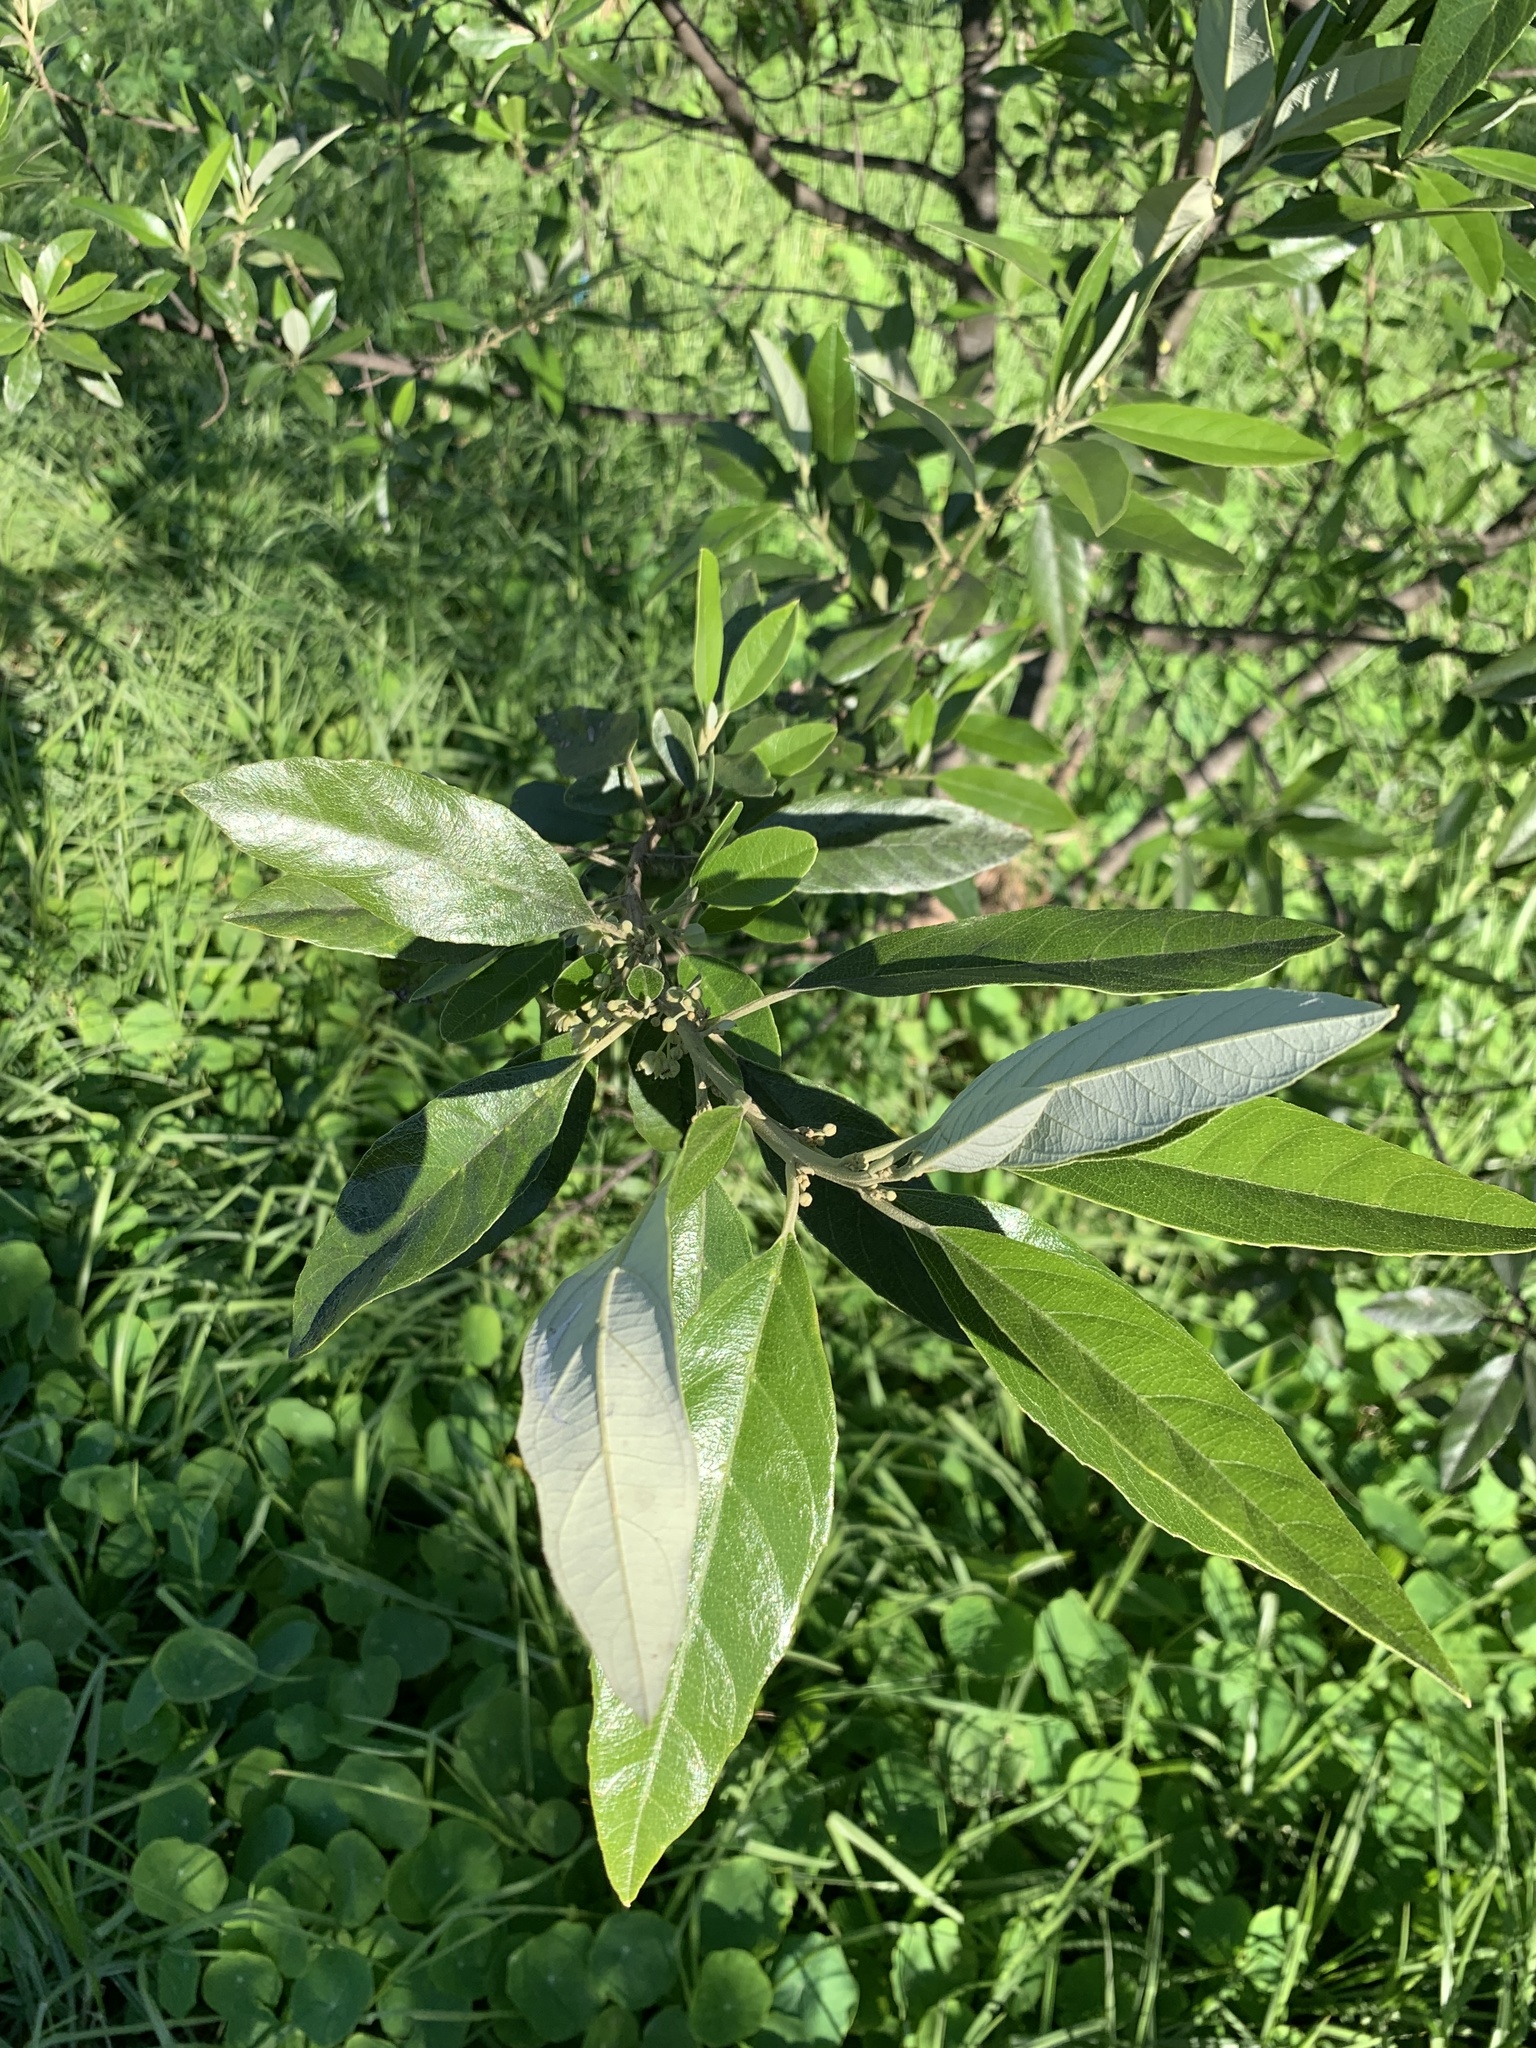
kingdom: Plantae
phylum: Tracheophyta
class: Magnoliopsida
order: Malpighiales
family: Achariaceae
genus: Kiggelaria
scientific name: Kiggelaria africana
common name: Wild peach
